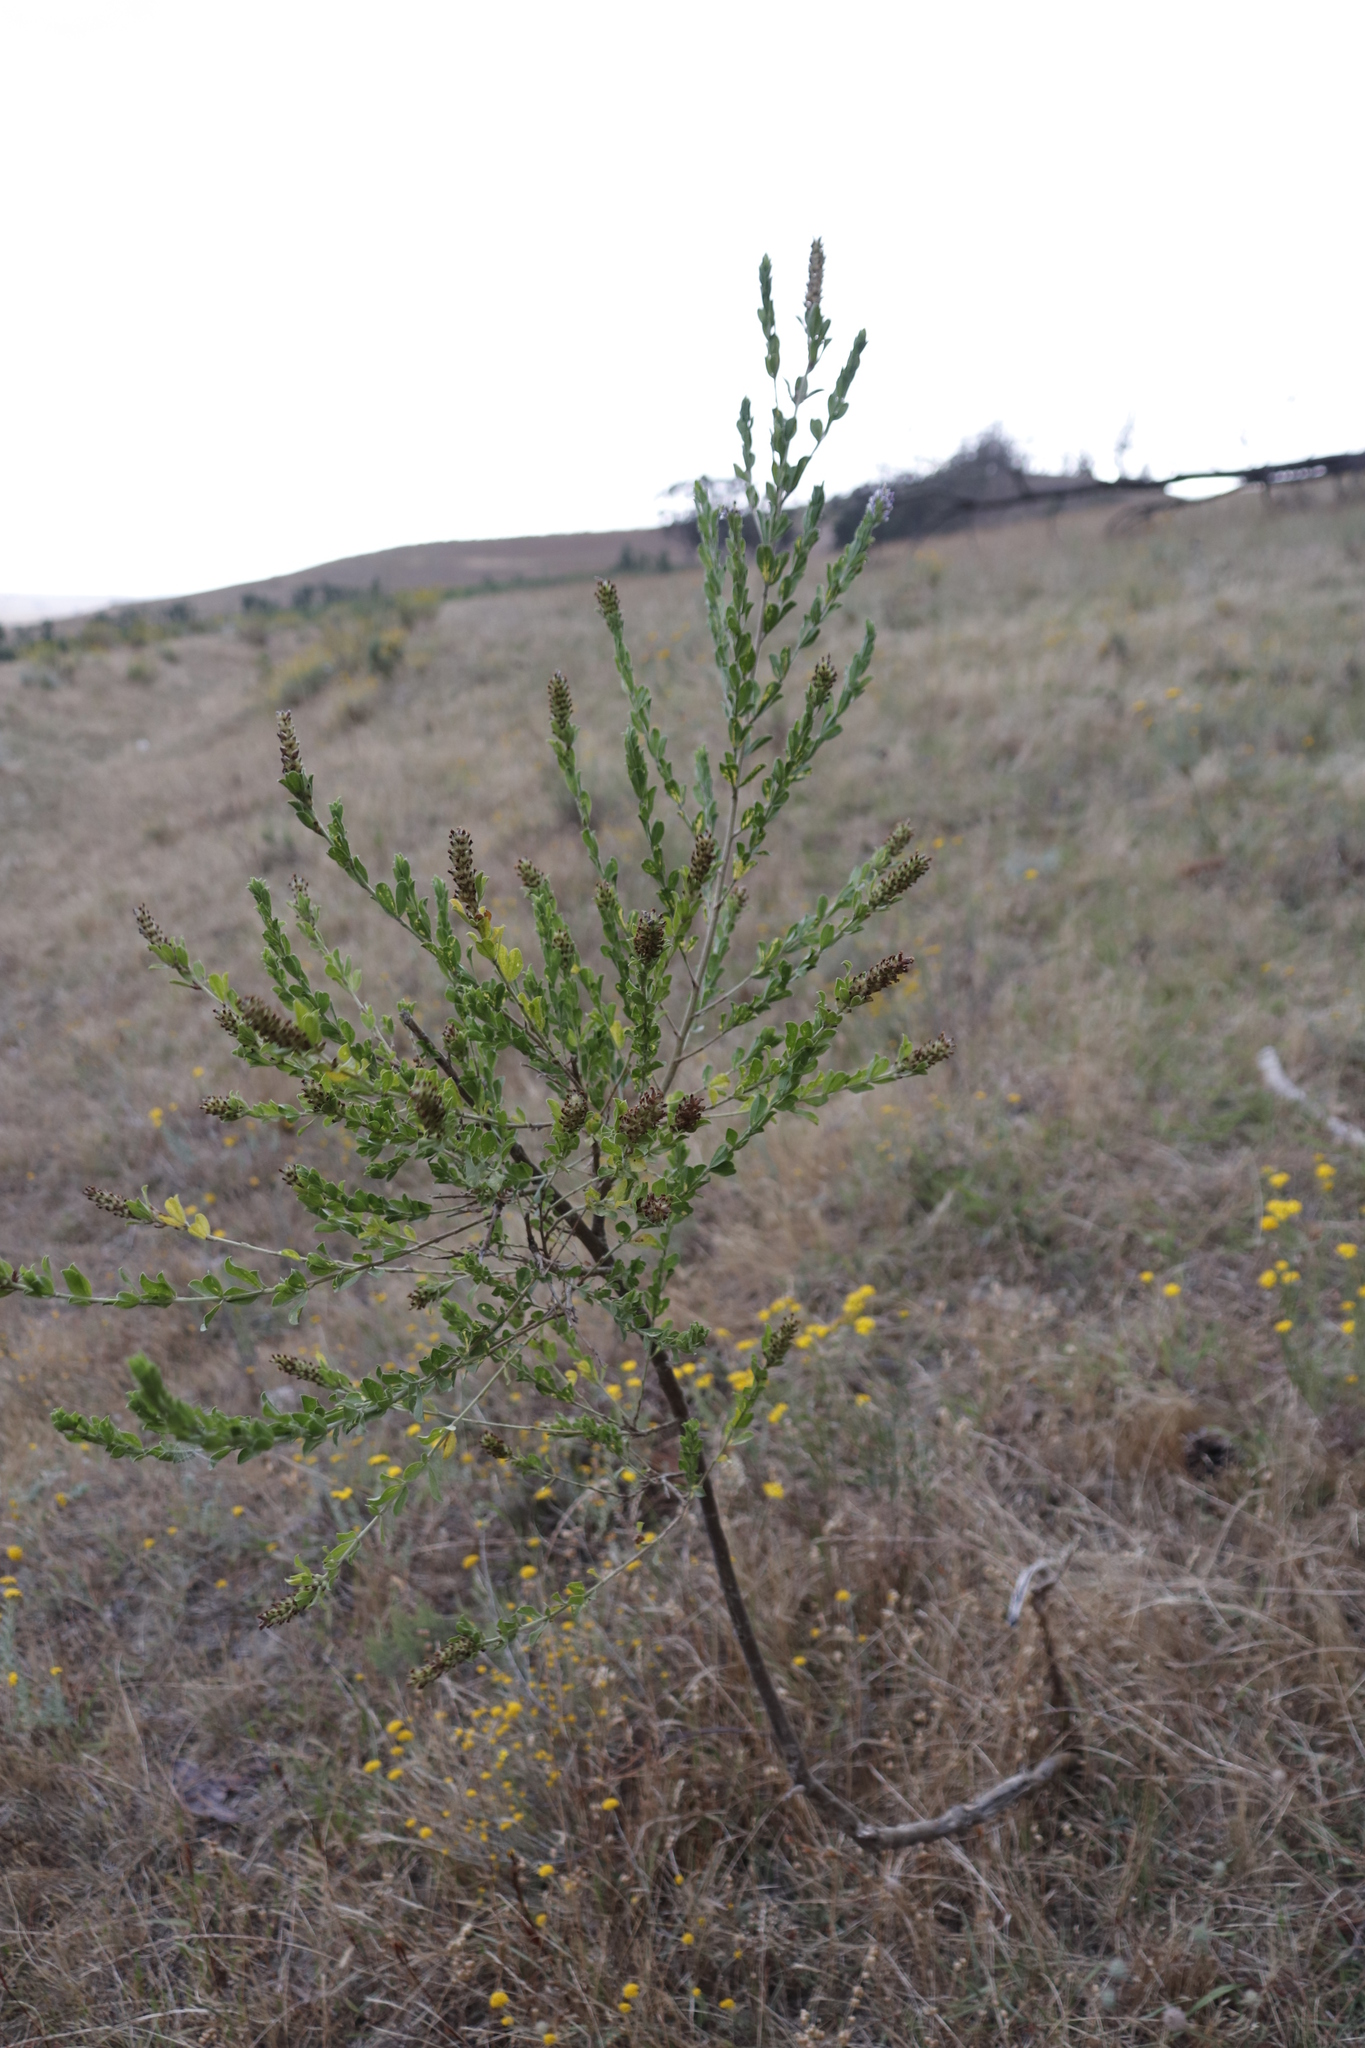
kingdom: Plantae
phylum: Tracheophyta
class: Magnoliopsida
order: Fabales
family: Fabaceae
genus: Psoralea
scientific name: Psoralea spicata
